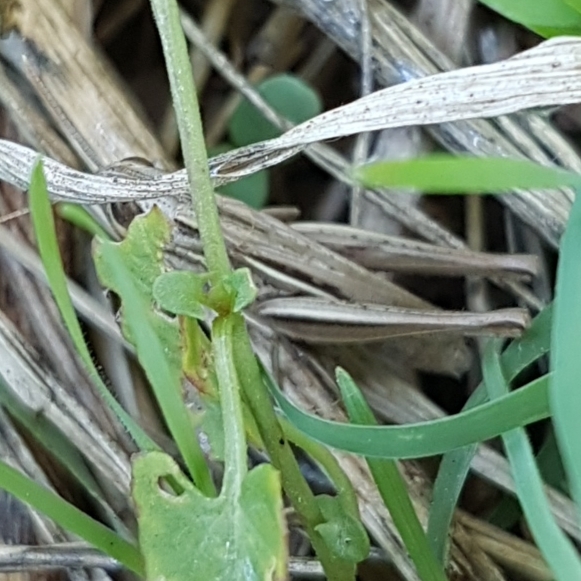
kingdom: Animalia
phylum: Arthropoda
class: Insecta
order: Orthoptera
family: Acrididae
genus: Euchorthippus
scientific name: Euchorthippus elegantulus
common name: Elegant straw grasshopper
